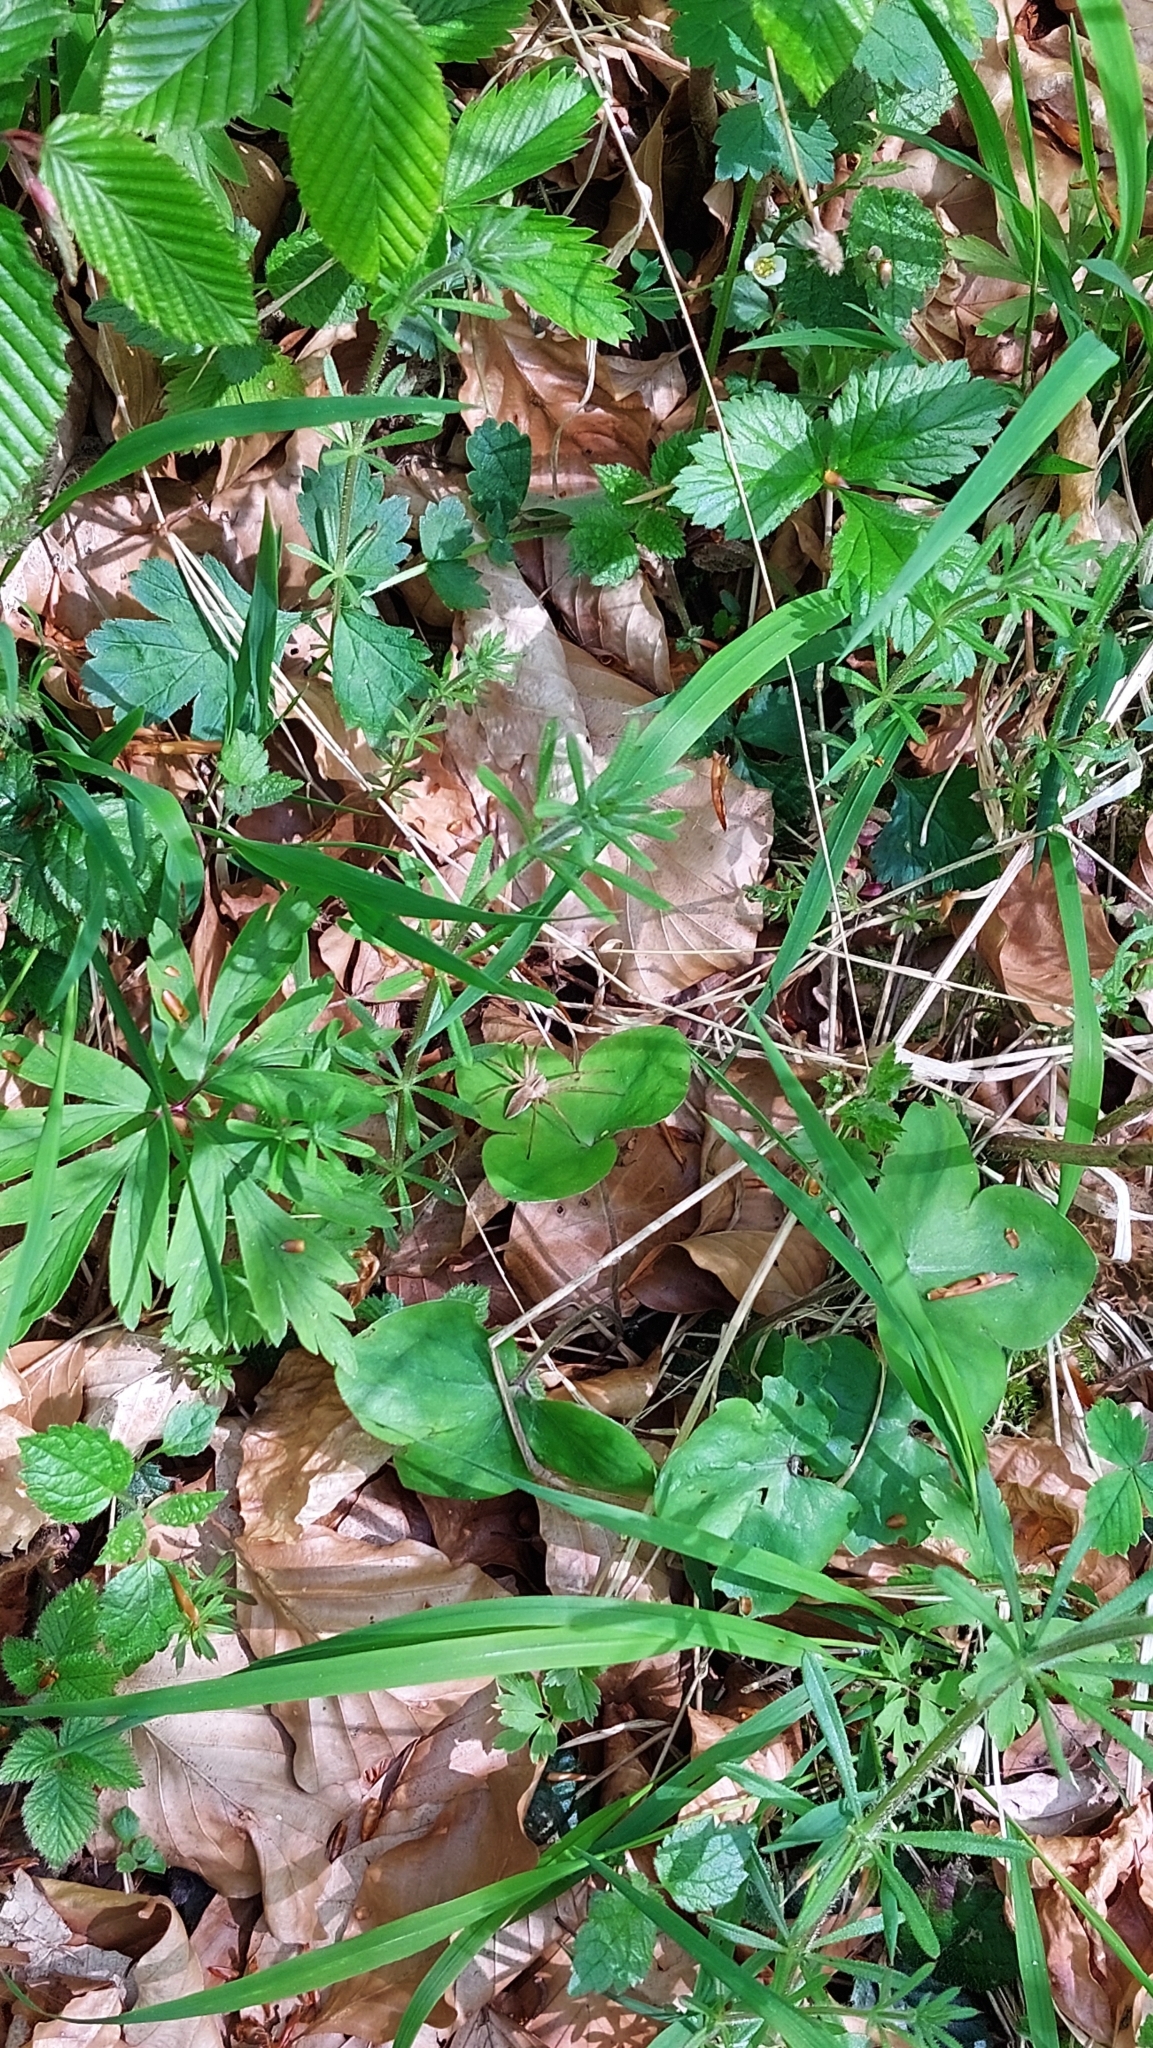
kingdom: Animalia
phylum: Arthropoda
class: Arachnida
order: Araneae
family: Pisauridae
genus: Pisaura
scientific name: Pisaura mirabilis
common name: Tent spider
